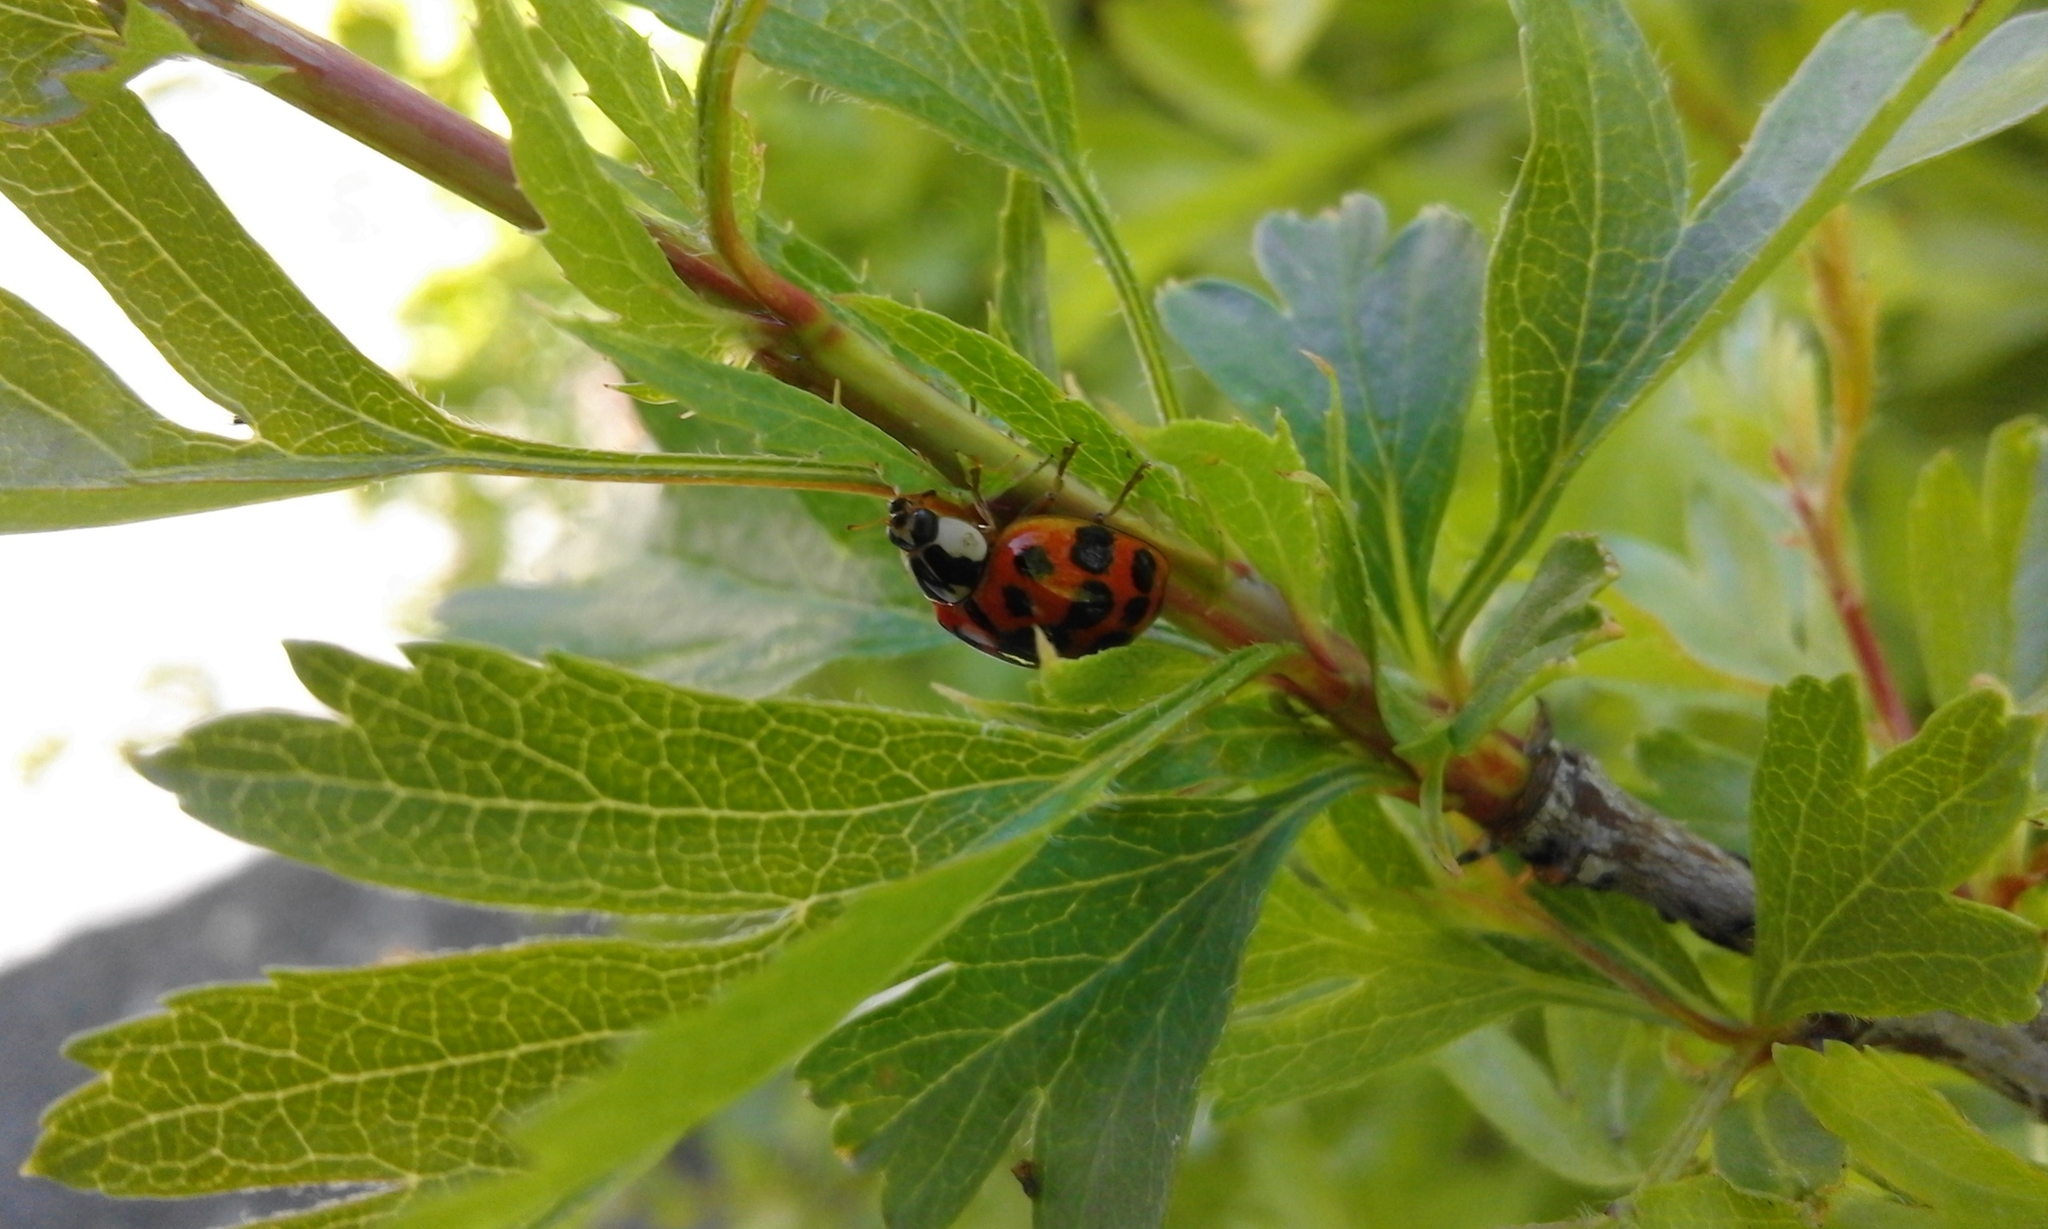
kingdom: Animalia
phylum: Arthropoda
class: Insecta
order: Coleoptera
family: Coccinellidae
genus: Harmonia
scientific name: Harmonia axyridis
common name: Harlequin ladybird
